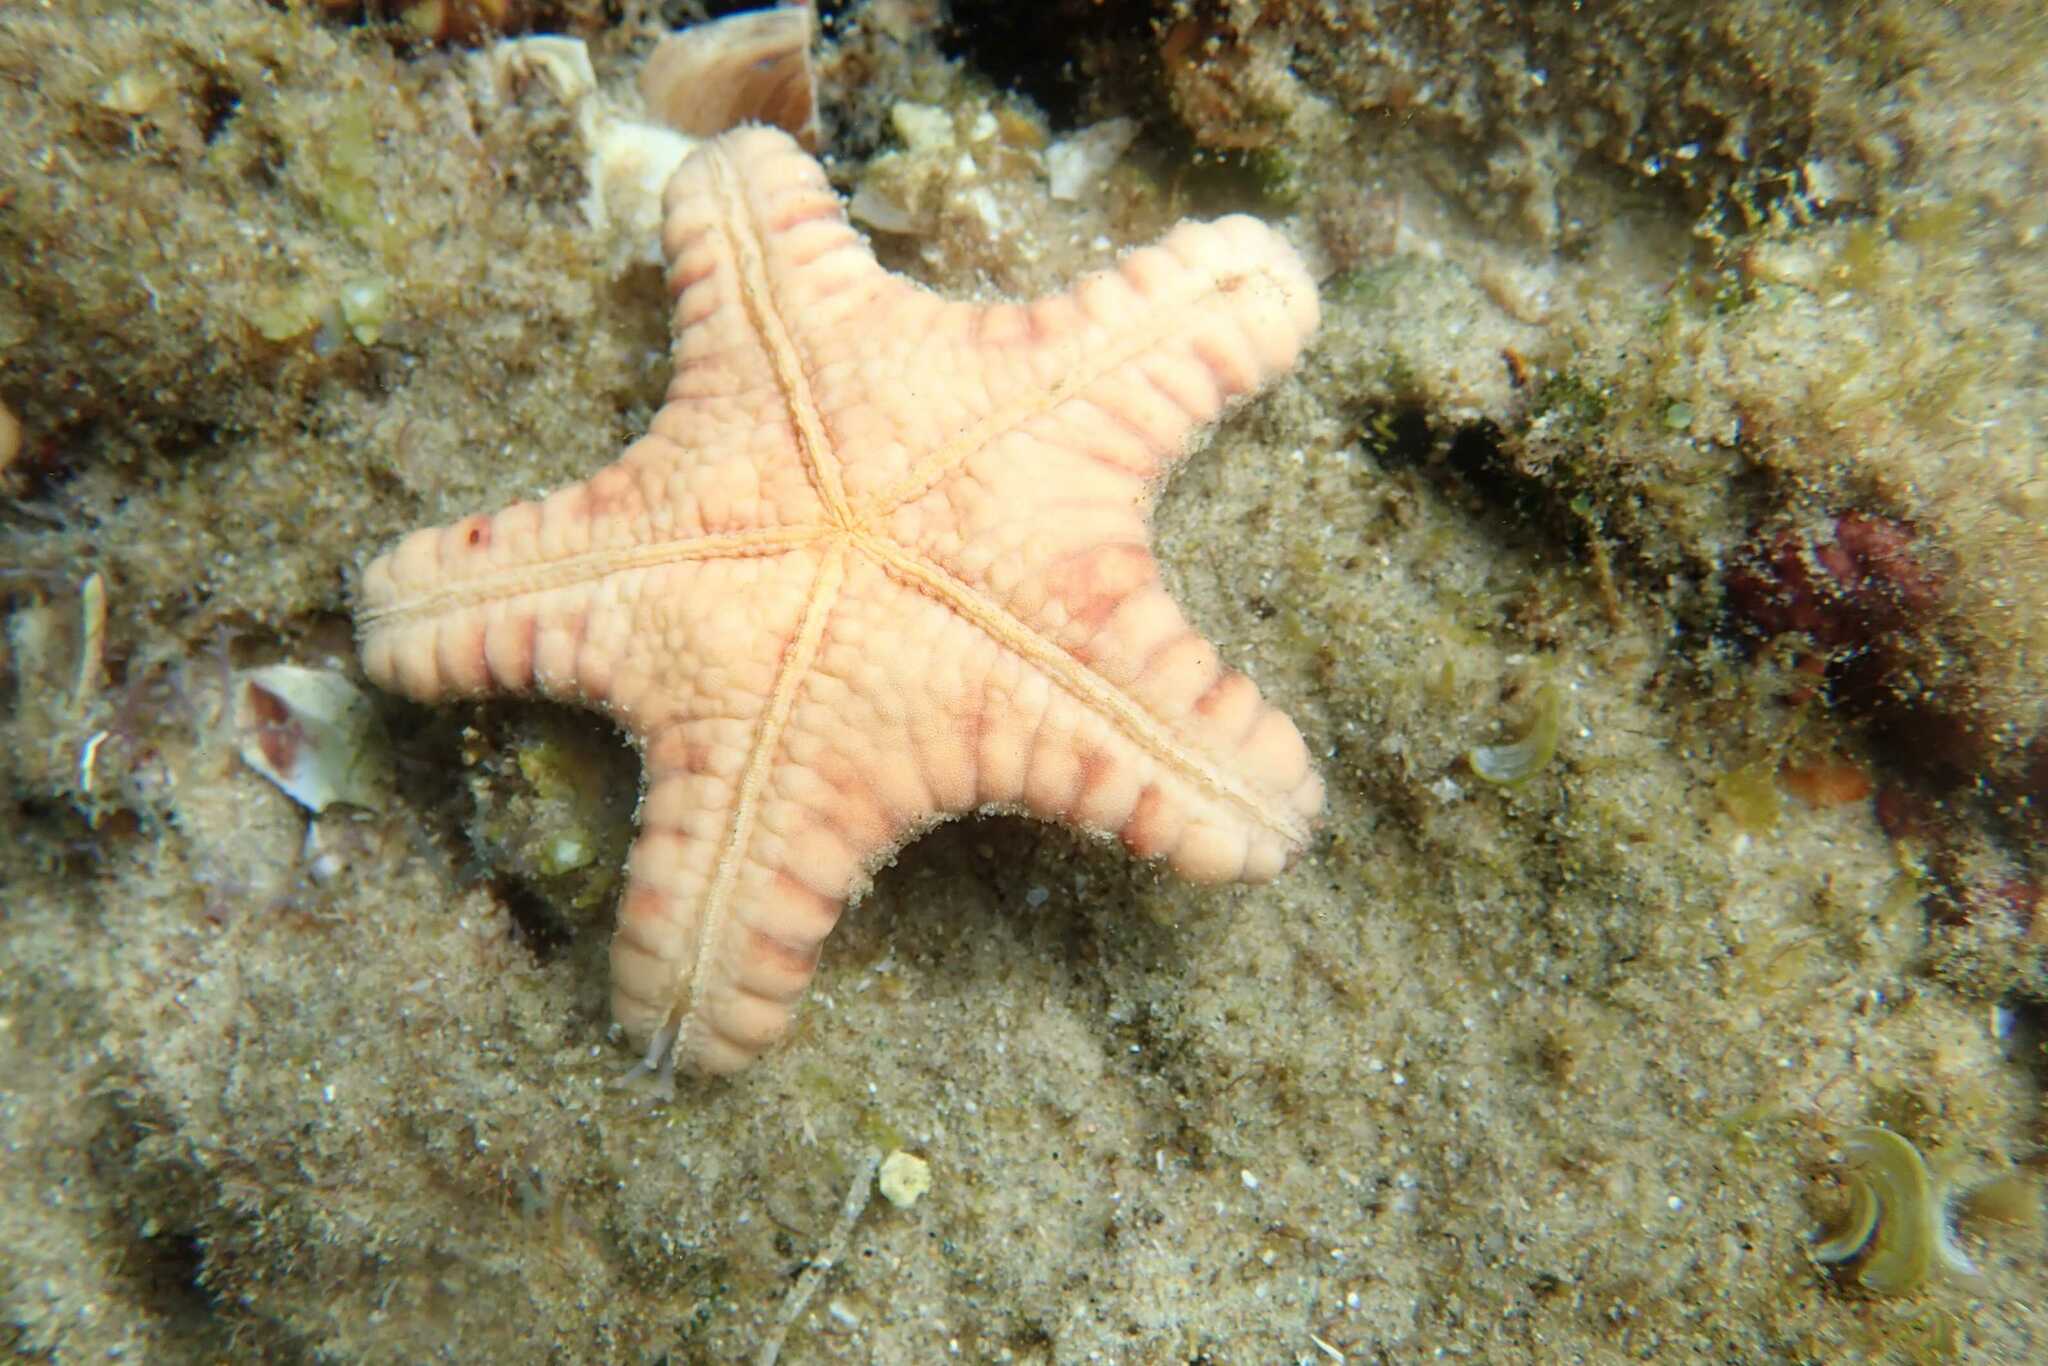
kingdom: Animalia
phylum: Echinodermata
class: Asteroidea
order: Valvatida
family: Oreasteridae
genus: Monachaster
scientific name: Monachaster sanderi
